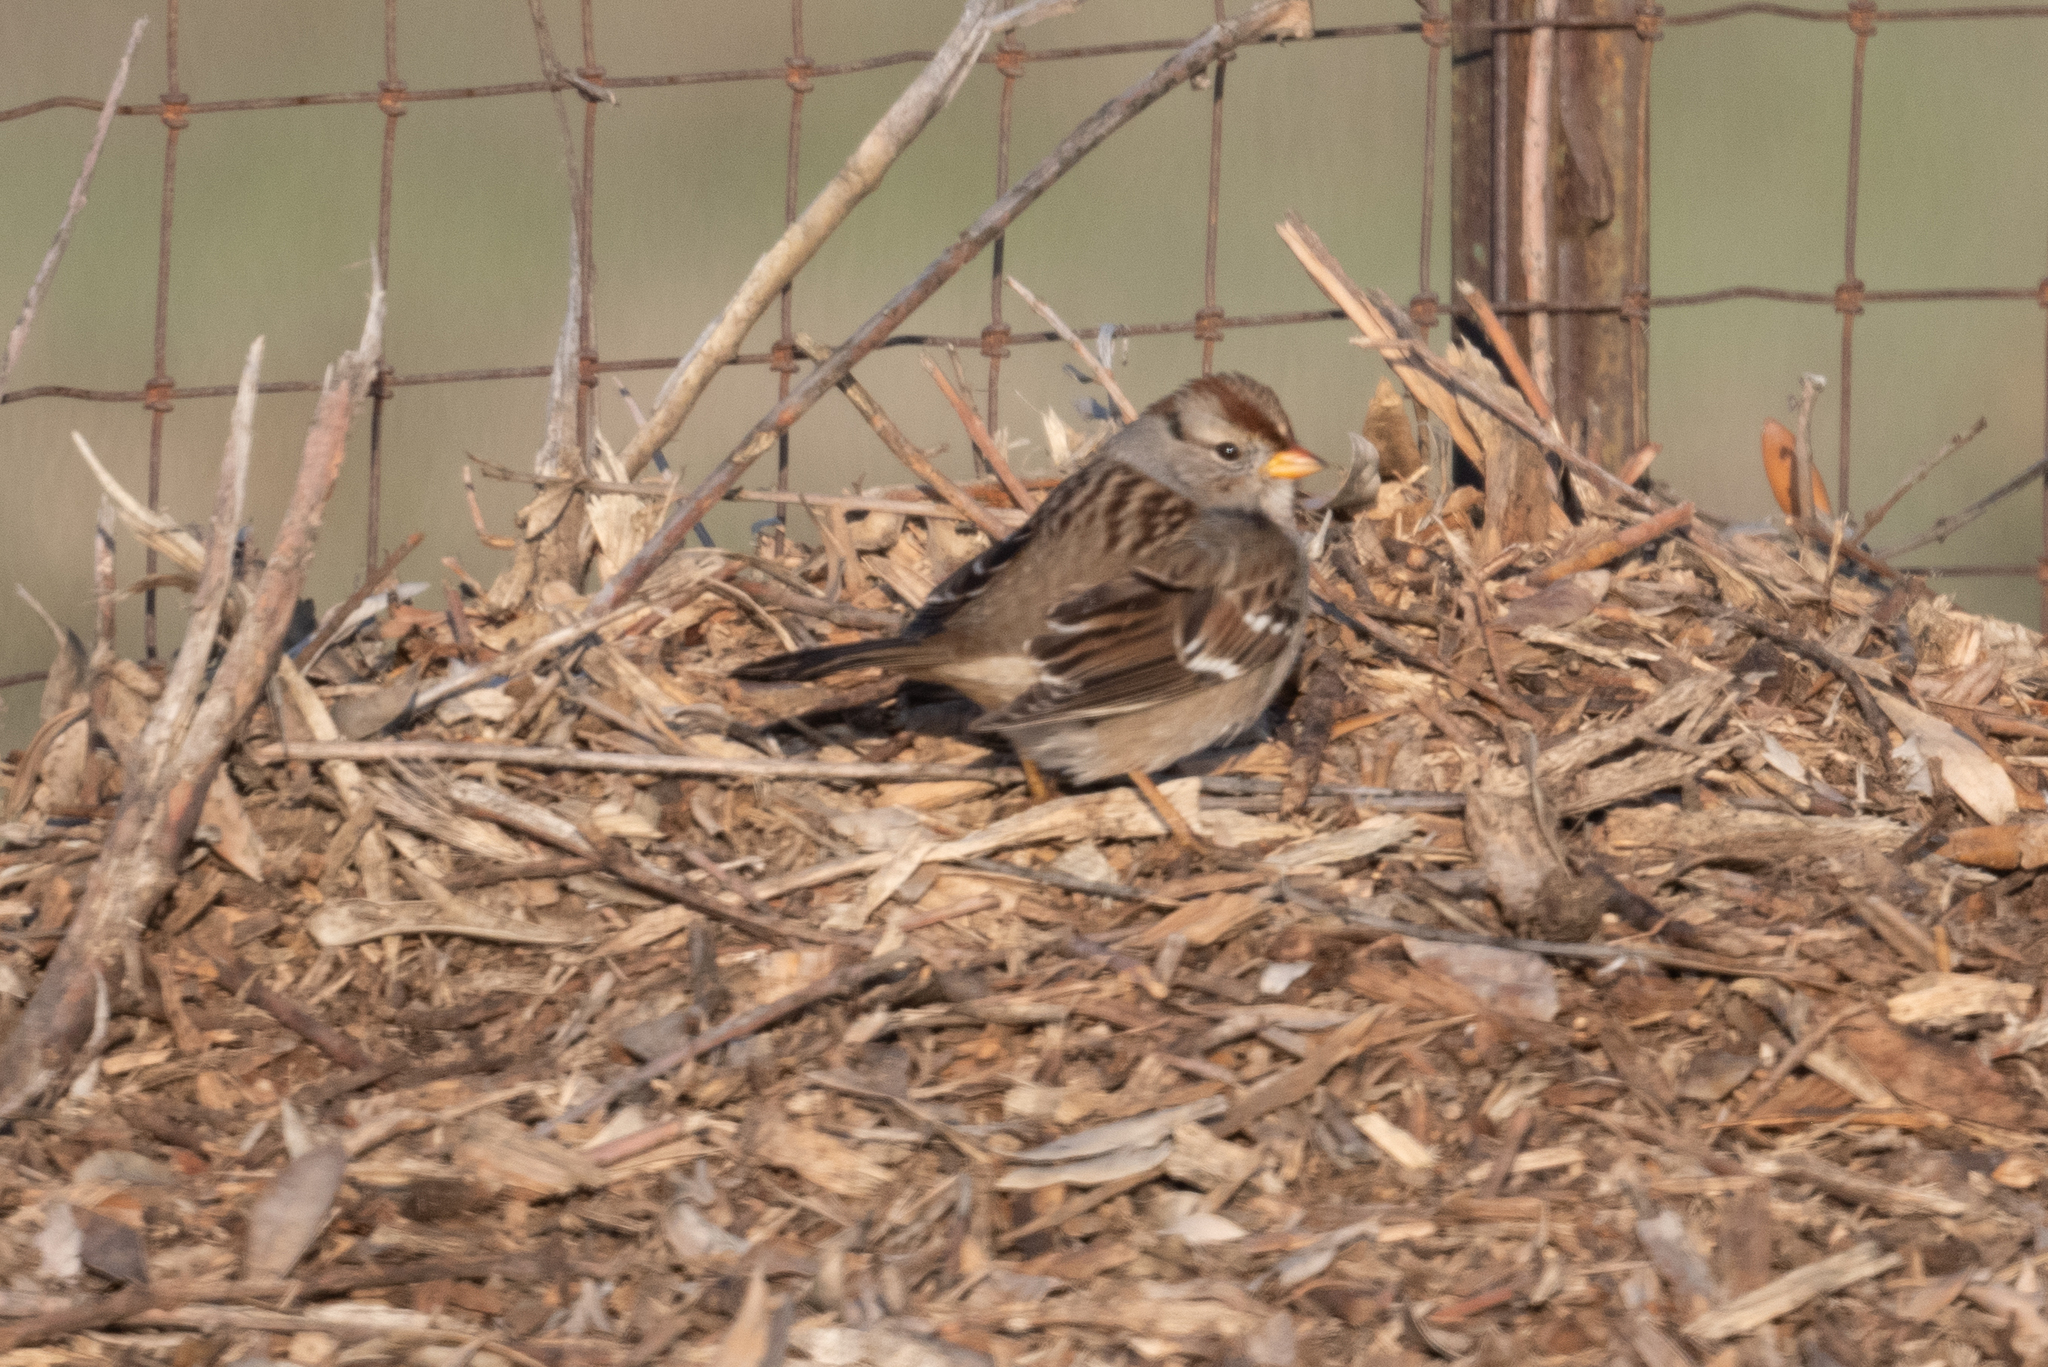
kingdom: Animalia
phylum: Chordata
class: Aves
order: Passeriformes
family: Passerellidae
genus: Zonotrichia
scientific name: Zonotrichia leucophrys
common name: White-crowned sparrow
